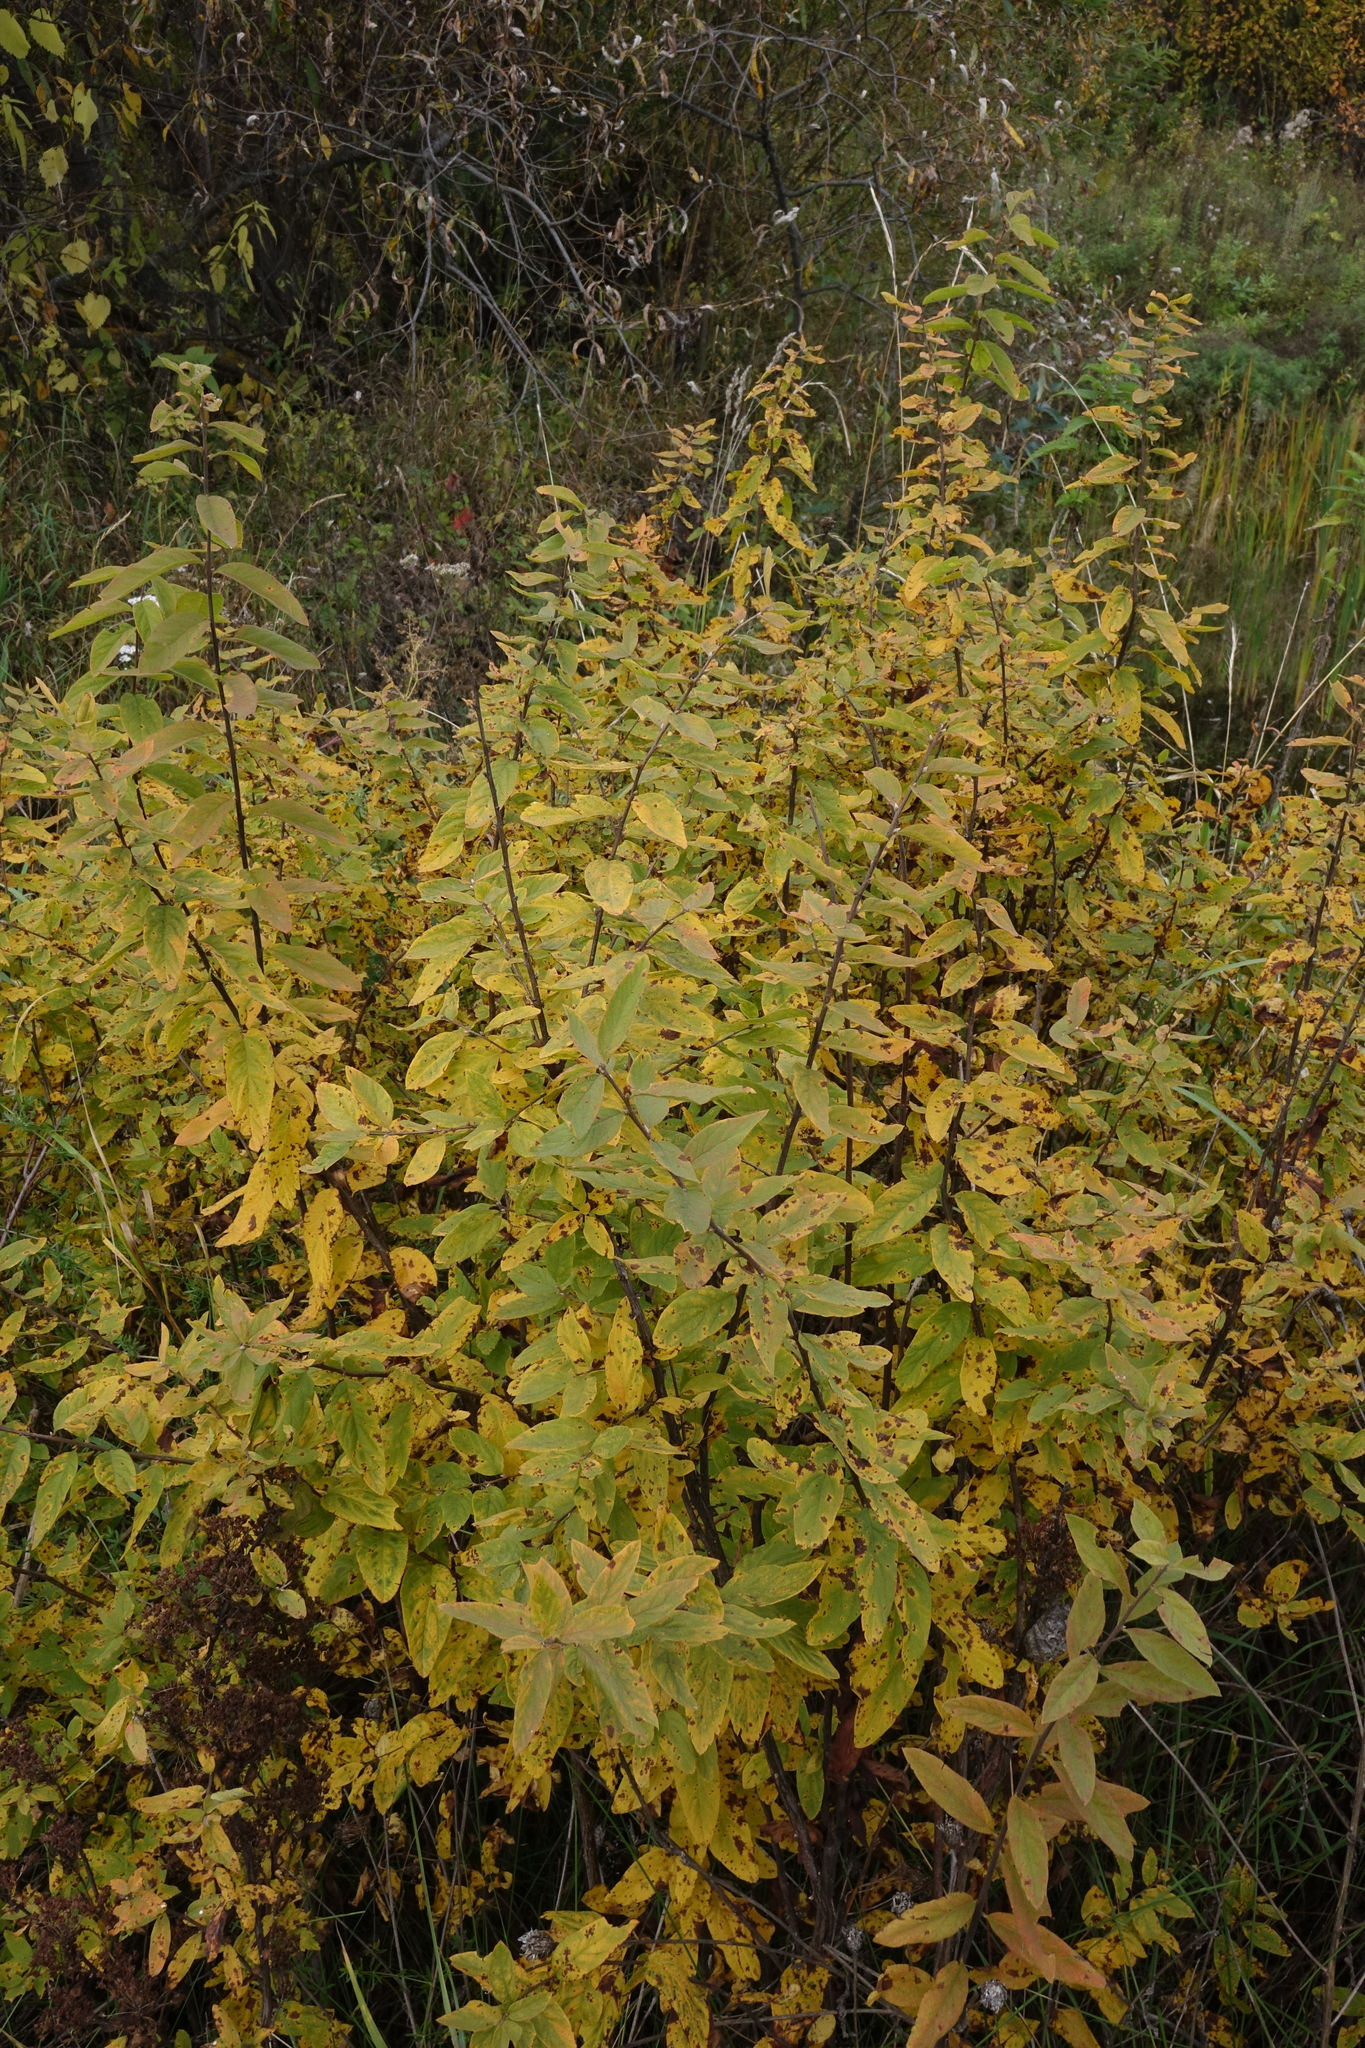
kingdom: Plantae
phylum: Tracheophyta
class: Magnoliopsida
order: Rosales
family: Rosaceae
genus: Spiraea
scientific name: Spiraea media
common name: Russian spiraea
